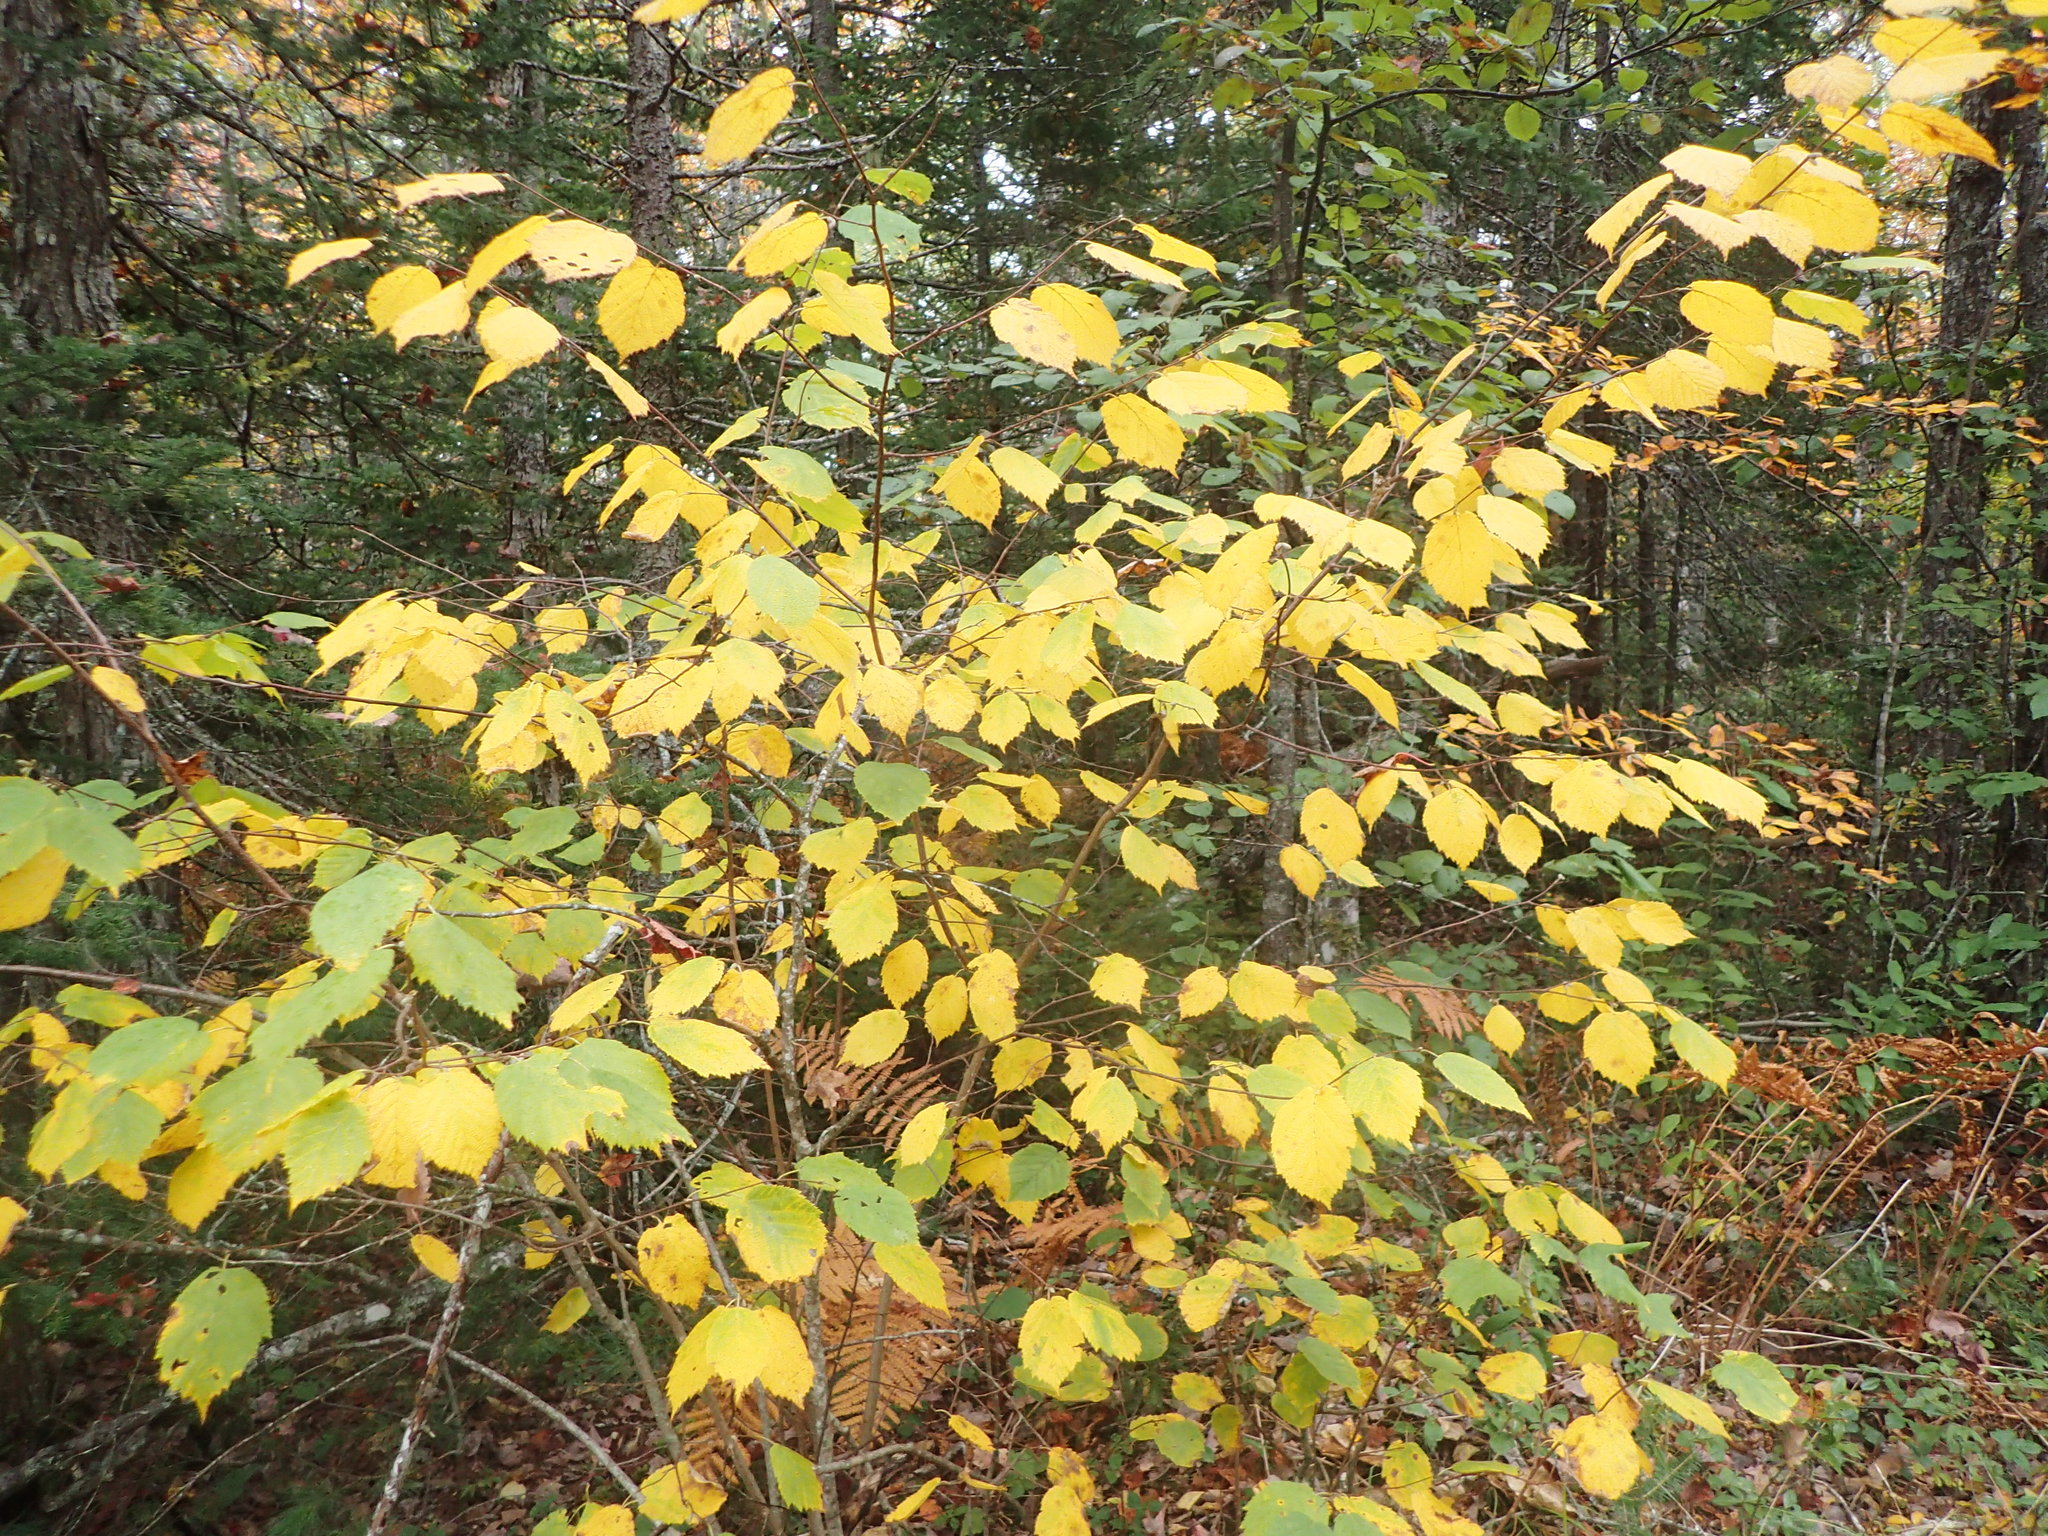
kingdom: Plantae
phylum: Tracheophyta
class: Magnoliopsida
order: Fagales
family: Betulaceae
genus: Corylus
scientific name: Corylus cornuta
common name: Beaked hazel
